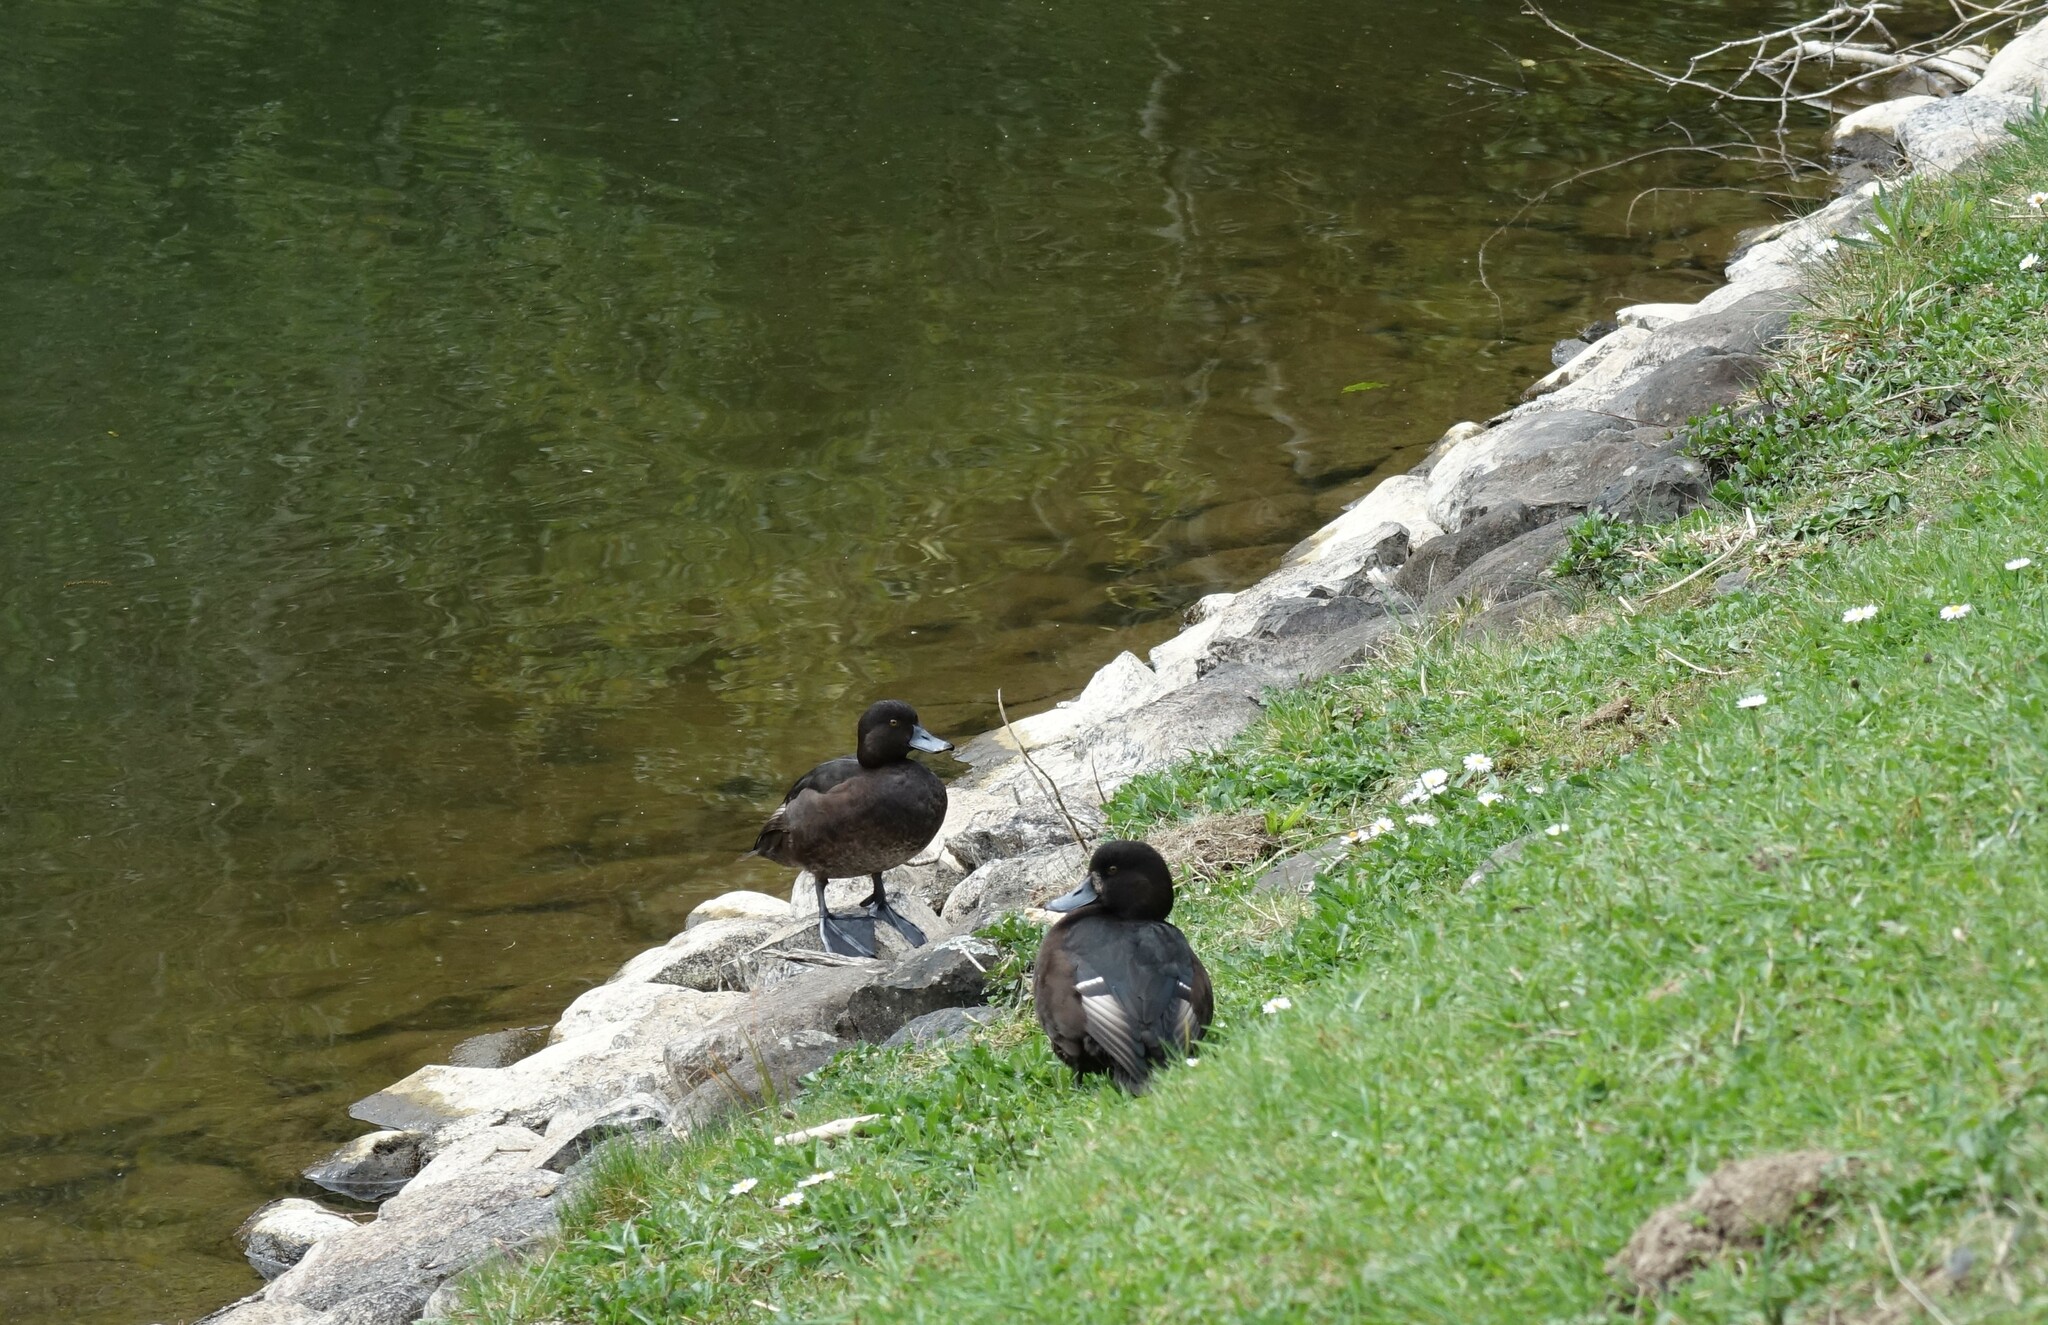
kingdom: Animalia
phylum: Chordata
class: Aves
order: Anseriformes
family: Anatidae
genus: Aythya
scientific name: Aythya novaeseelandiae
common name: New zealand scaup
